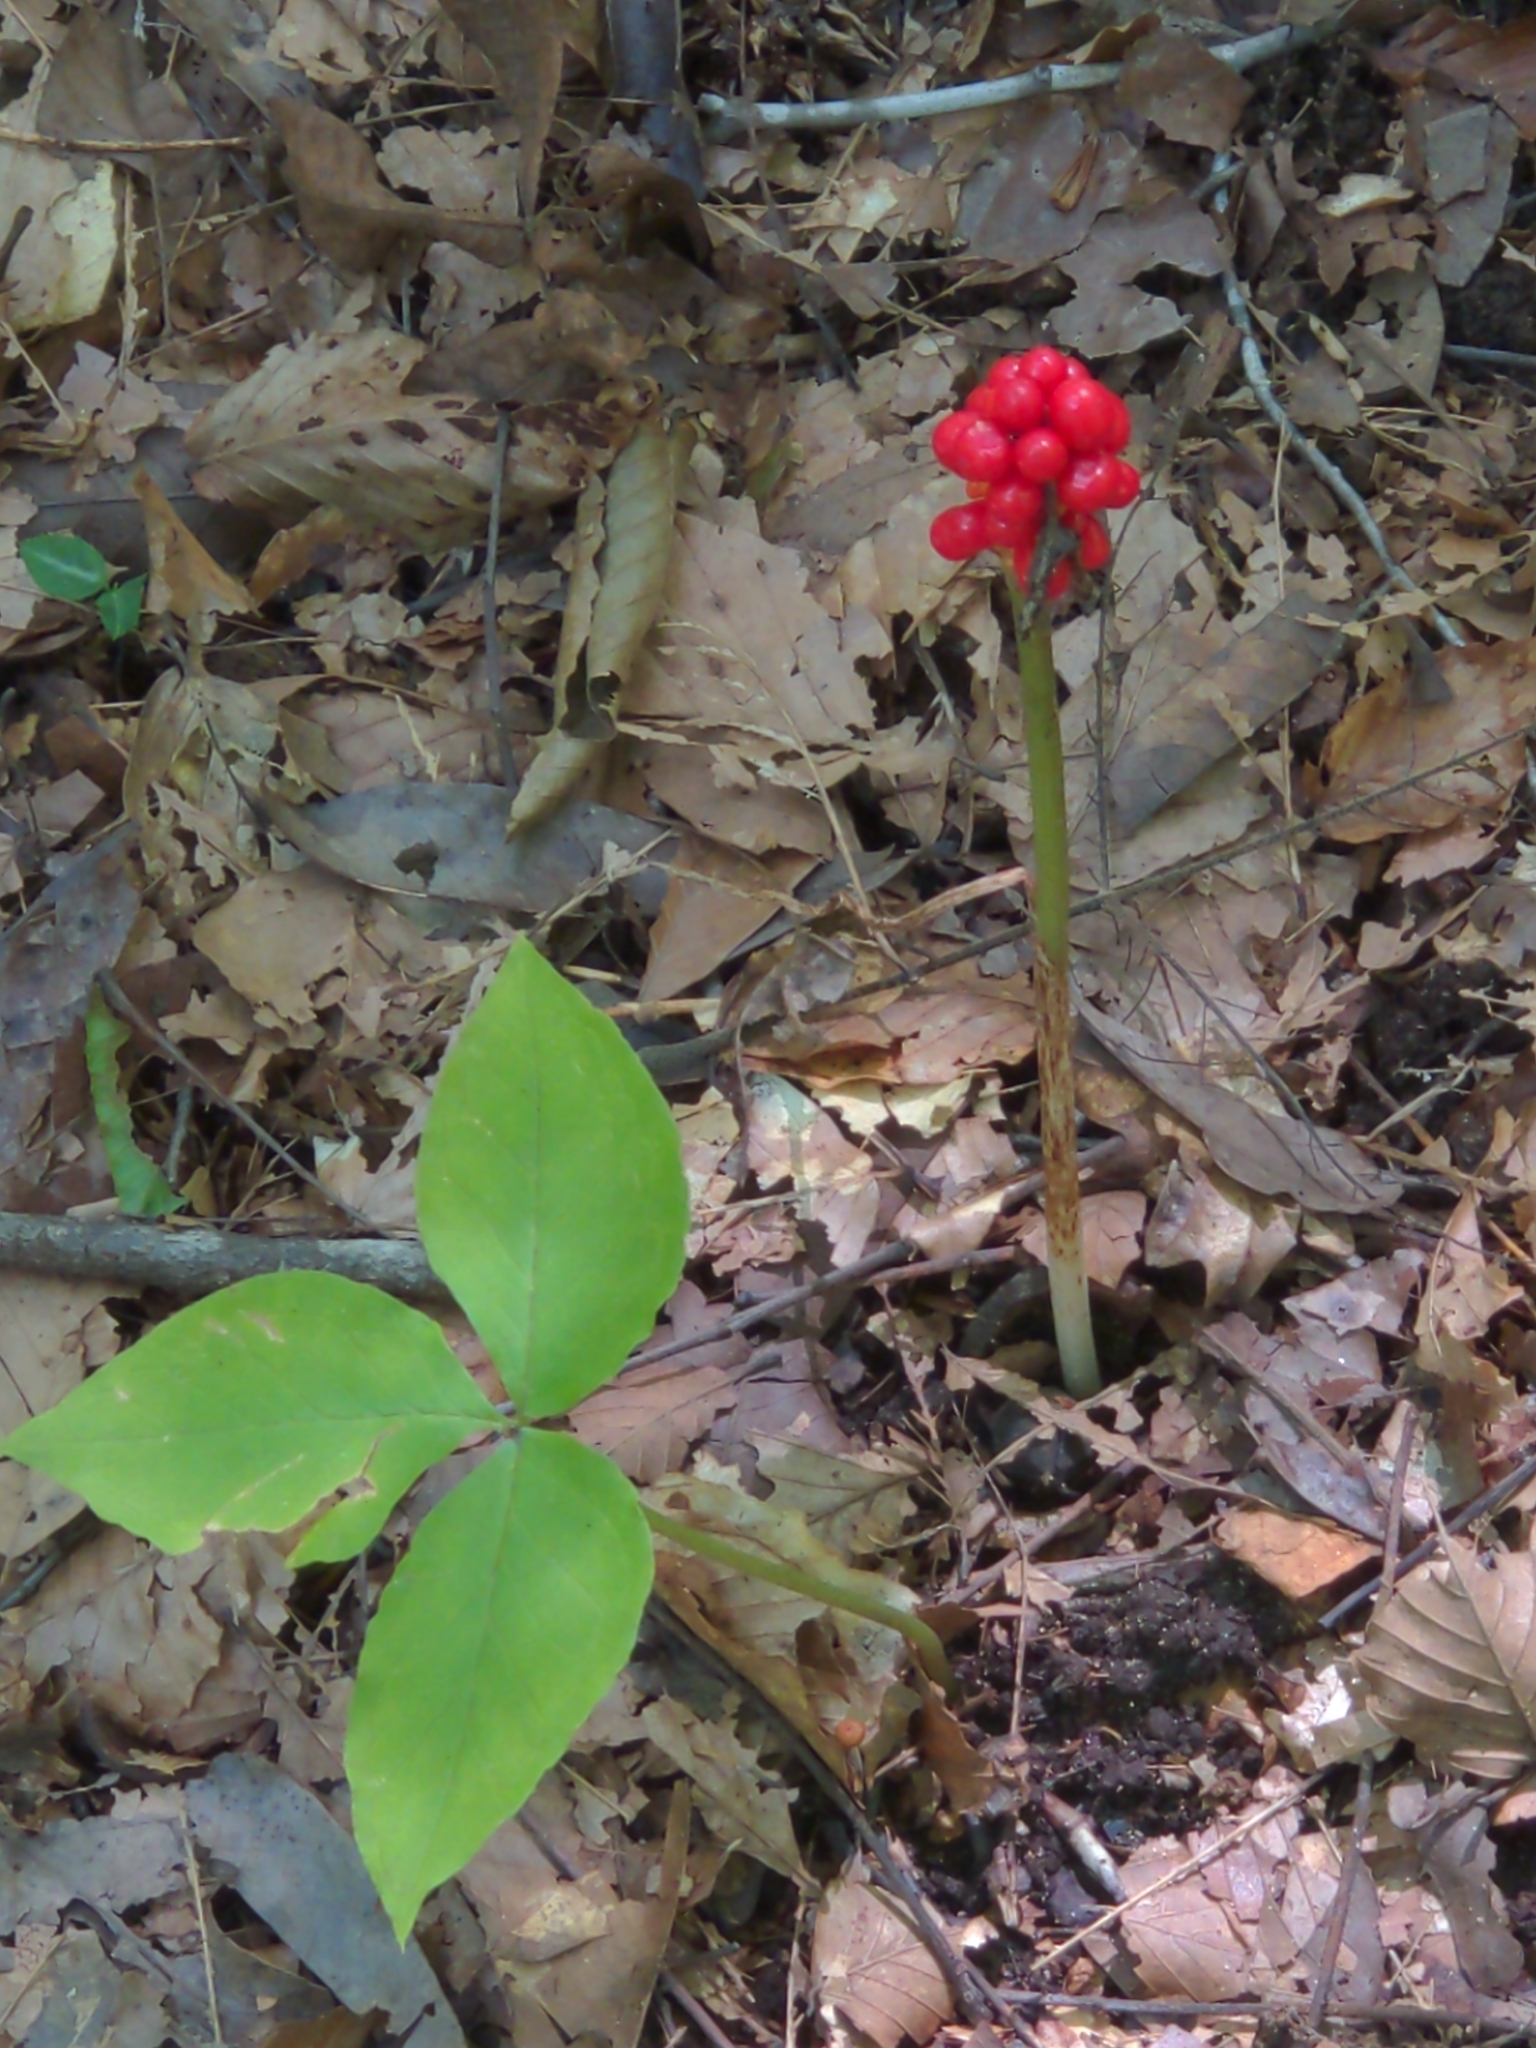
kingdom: Plantae
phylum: Tracheophyta
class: Liliopsida
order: Alismatales
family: Araceae
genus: Arisaema
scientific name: Arisaema triphyllum
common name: Jack-in-the-pulpit
